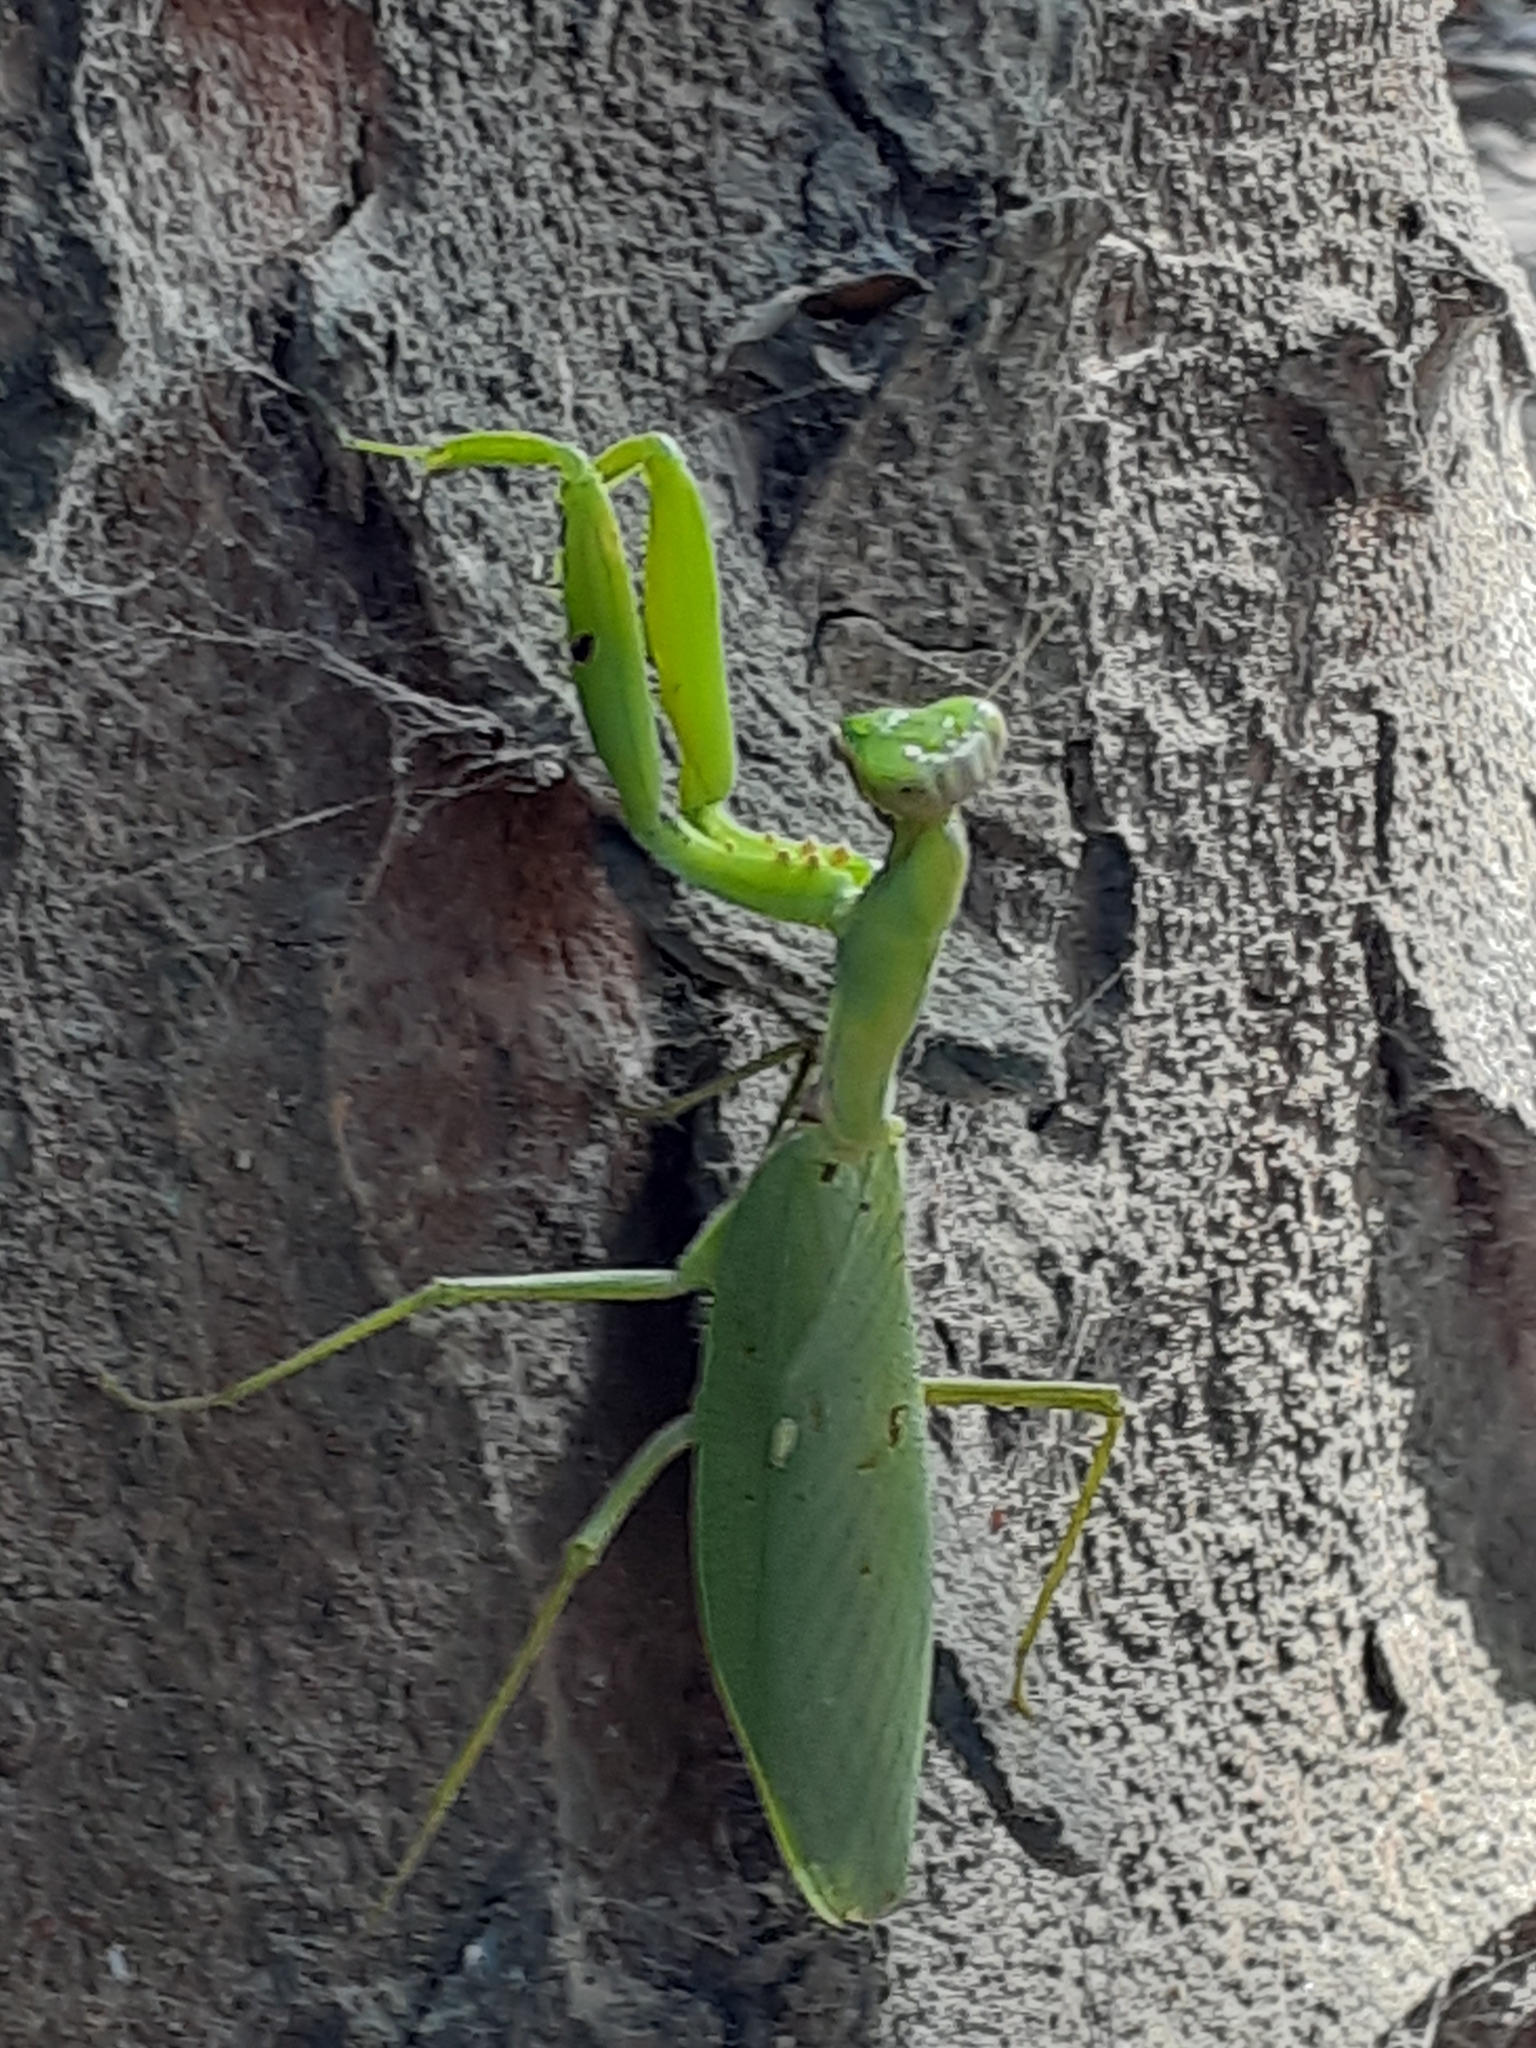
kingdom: Animalia
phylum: Arthropoda
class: Insecta
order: Mantodea
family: Mantidae
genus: Hierodula
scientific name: Hierodula patellifera
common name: Asian mantis
